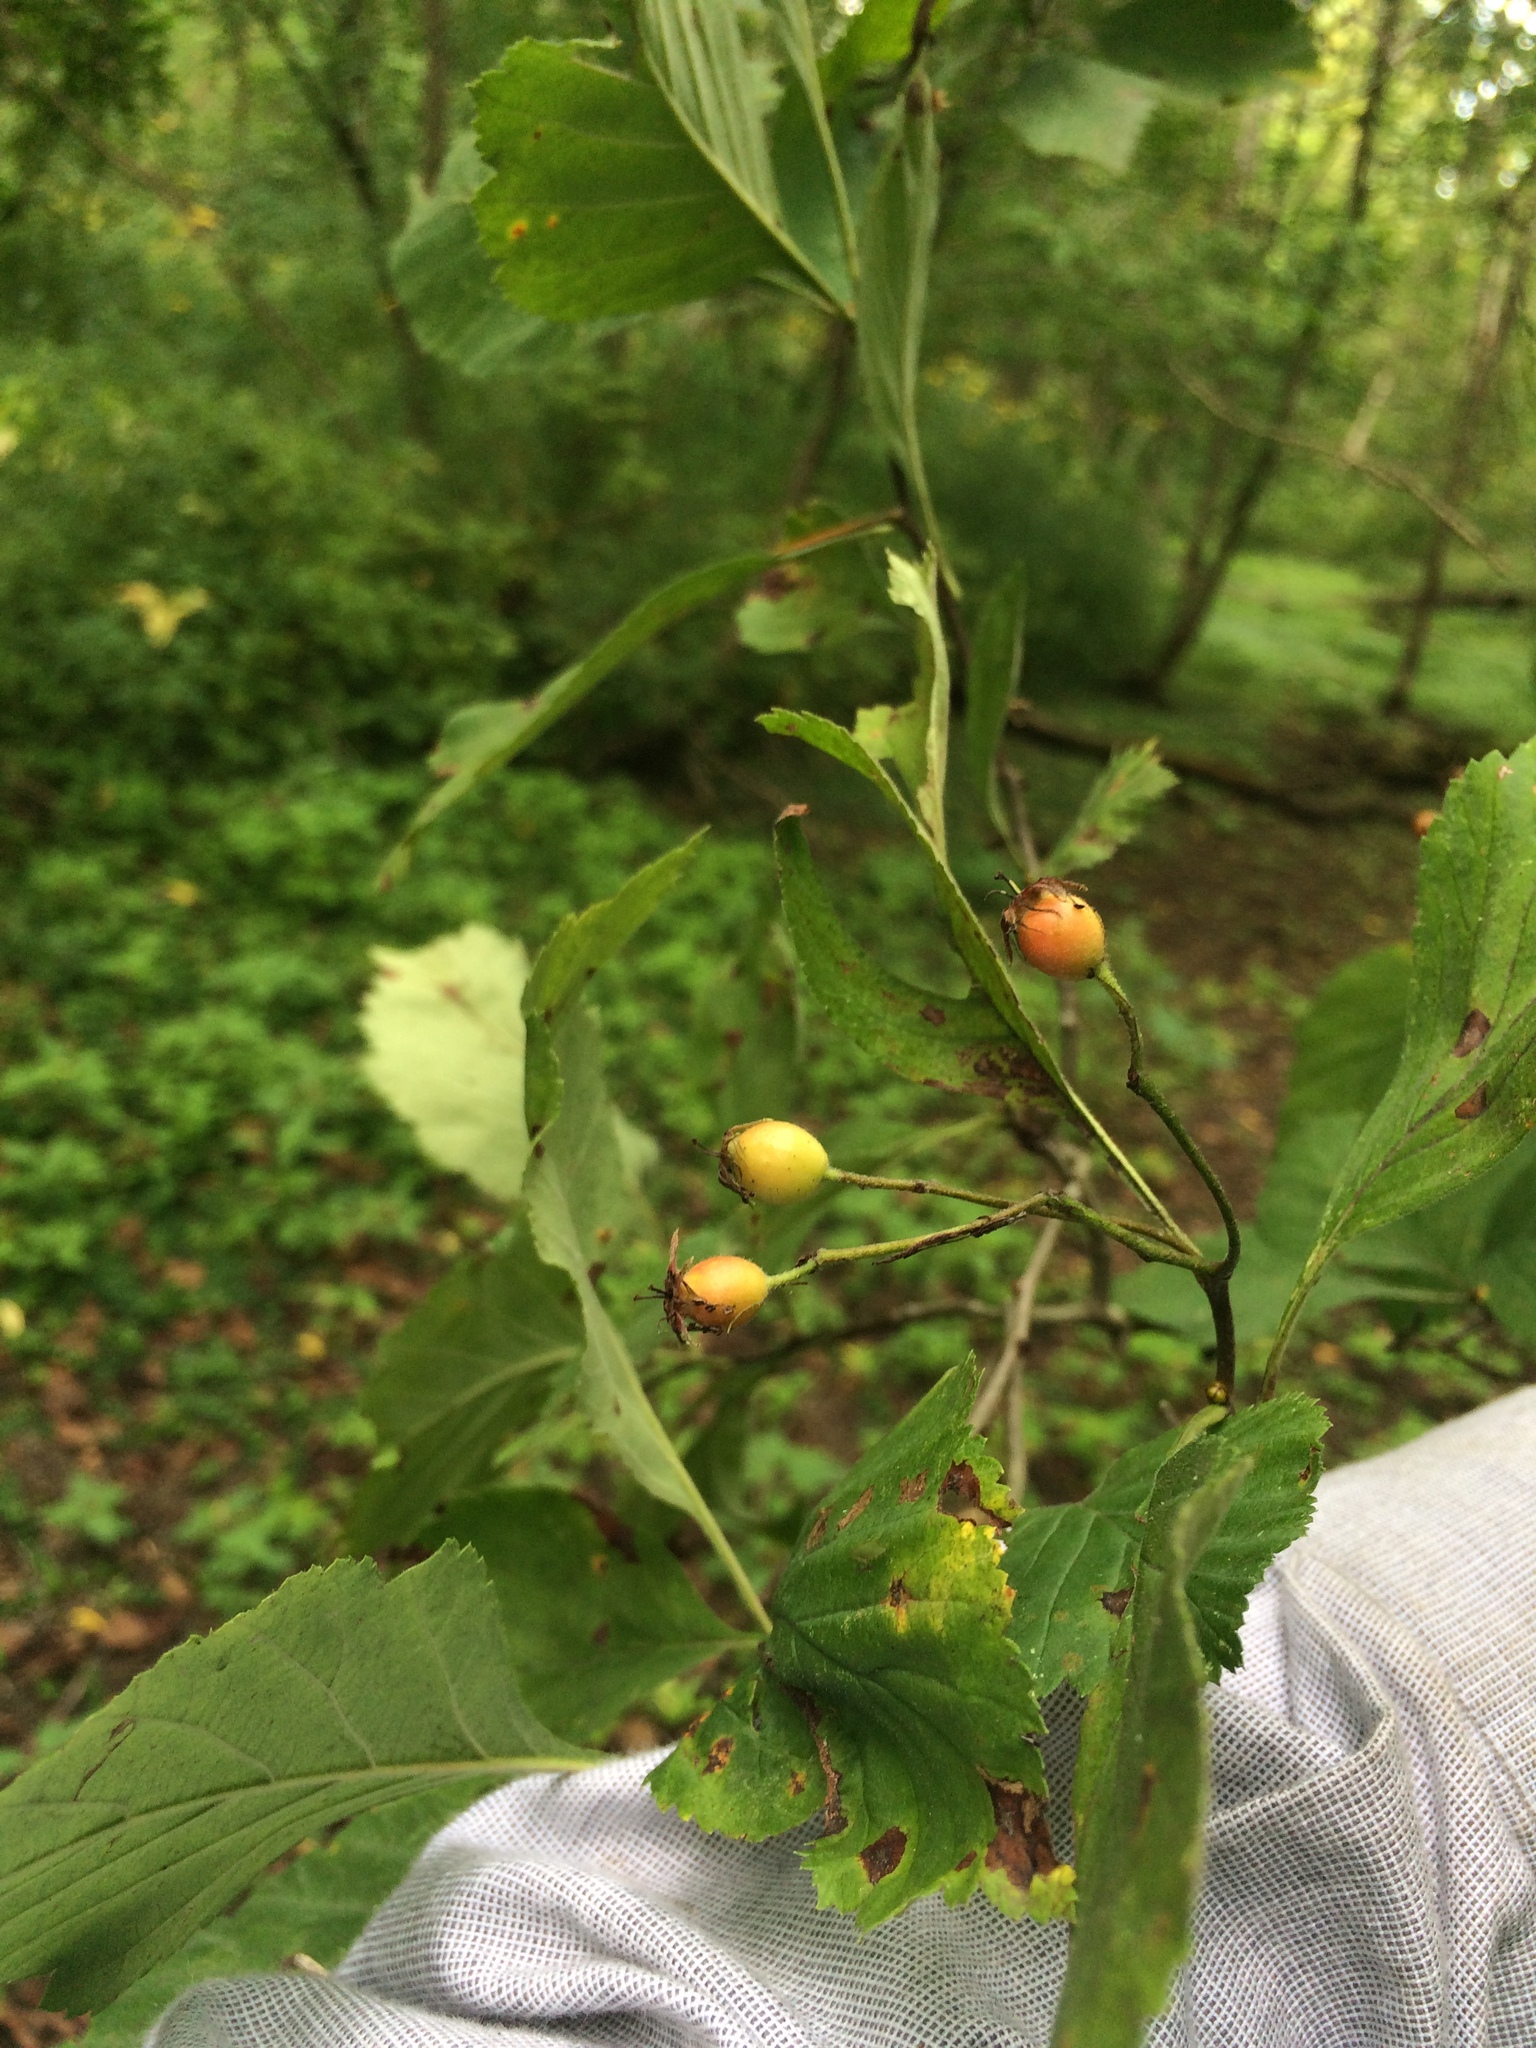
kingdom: Plantae
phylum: Tracheophyta
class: Magnoliopsida
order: Rosales
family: Rosaceae
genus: Crataegus
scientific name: Crataegus punctata
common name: Dotted hawthorn
